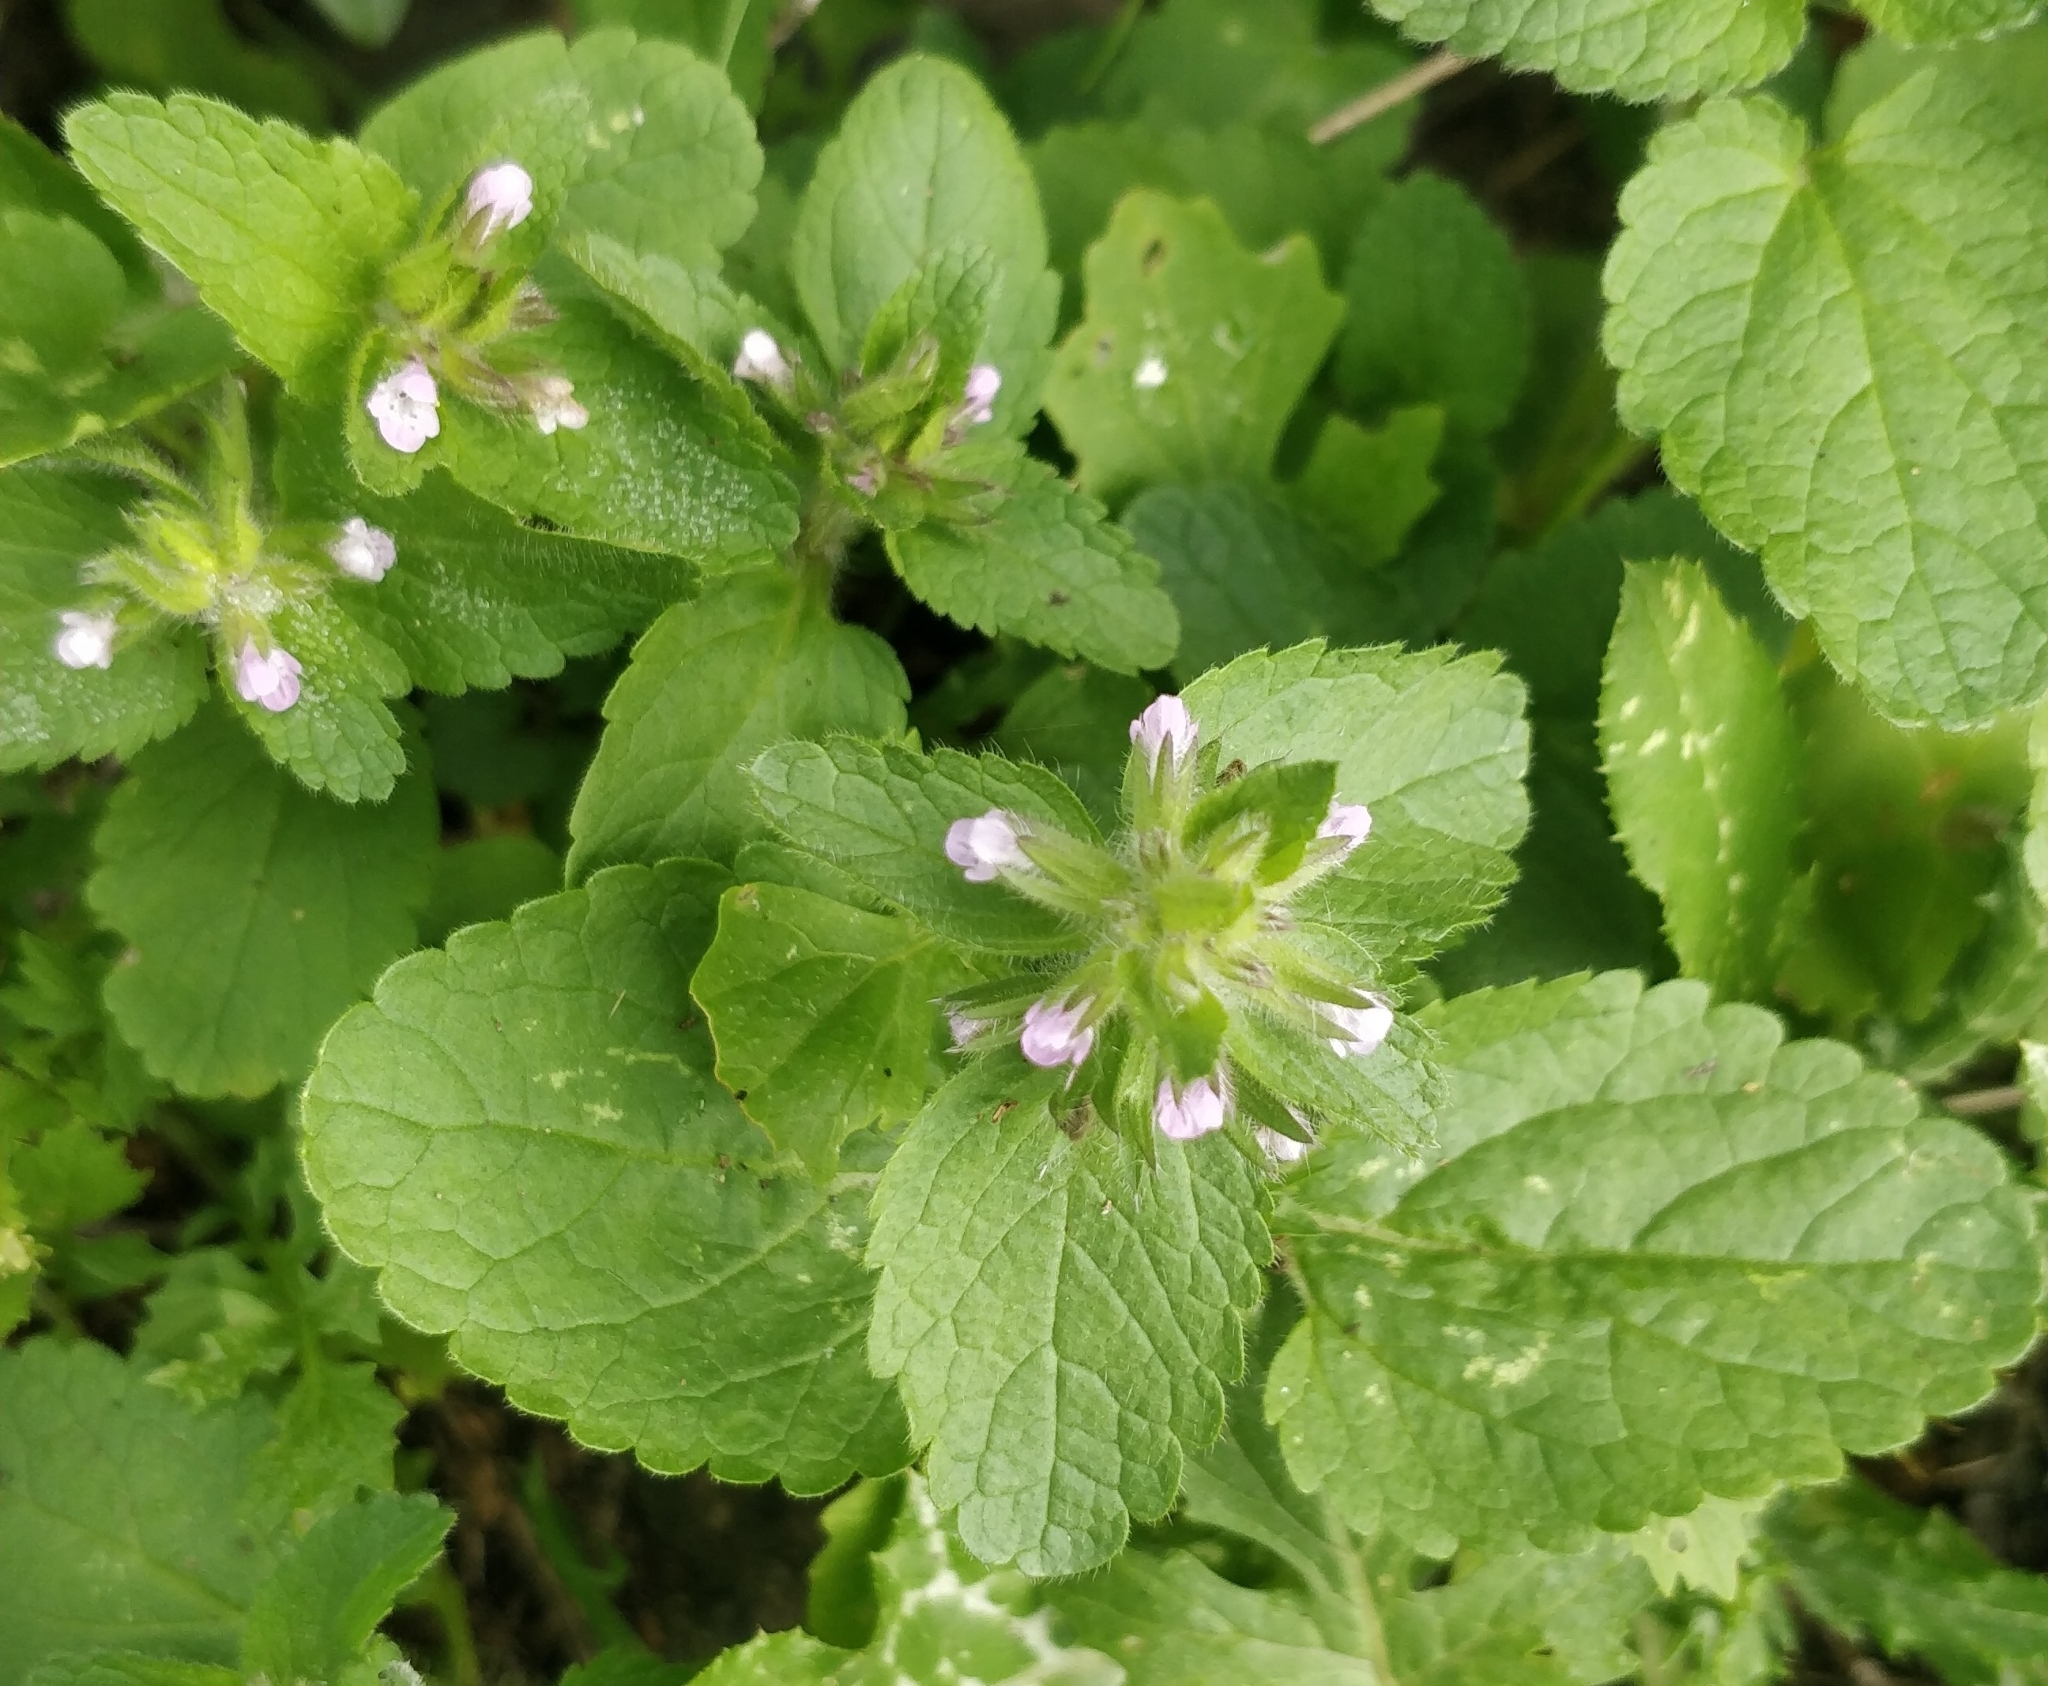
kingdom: Plantae
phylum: Tracheophyta
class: Magnoliopsida
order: Lamiales
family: Lamiaceae
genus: Stachys
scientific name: Stachys arvensis
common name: Field woundwort
